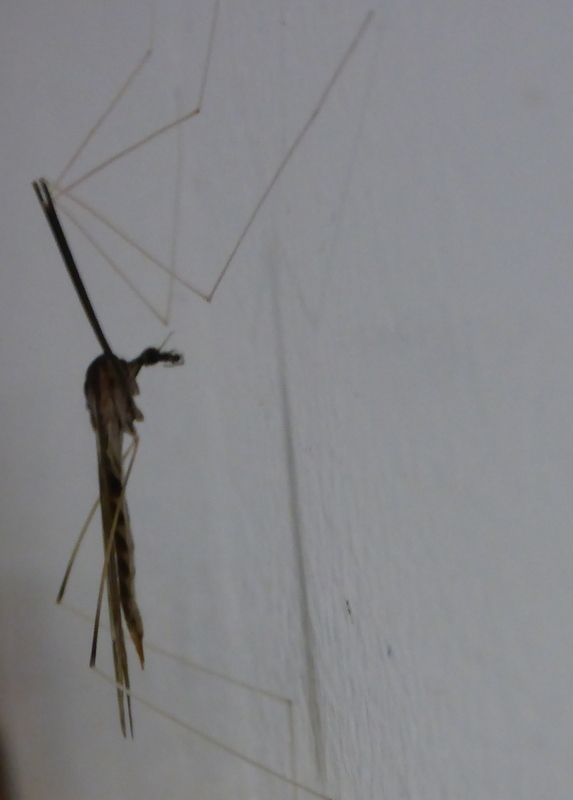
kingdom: Animalia
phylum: Arthropoda
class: Insecta
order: Diptera
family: Tipulidae
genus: Brachypremna
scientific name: Brachypremna dispellens
